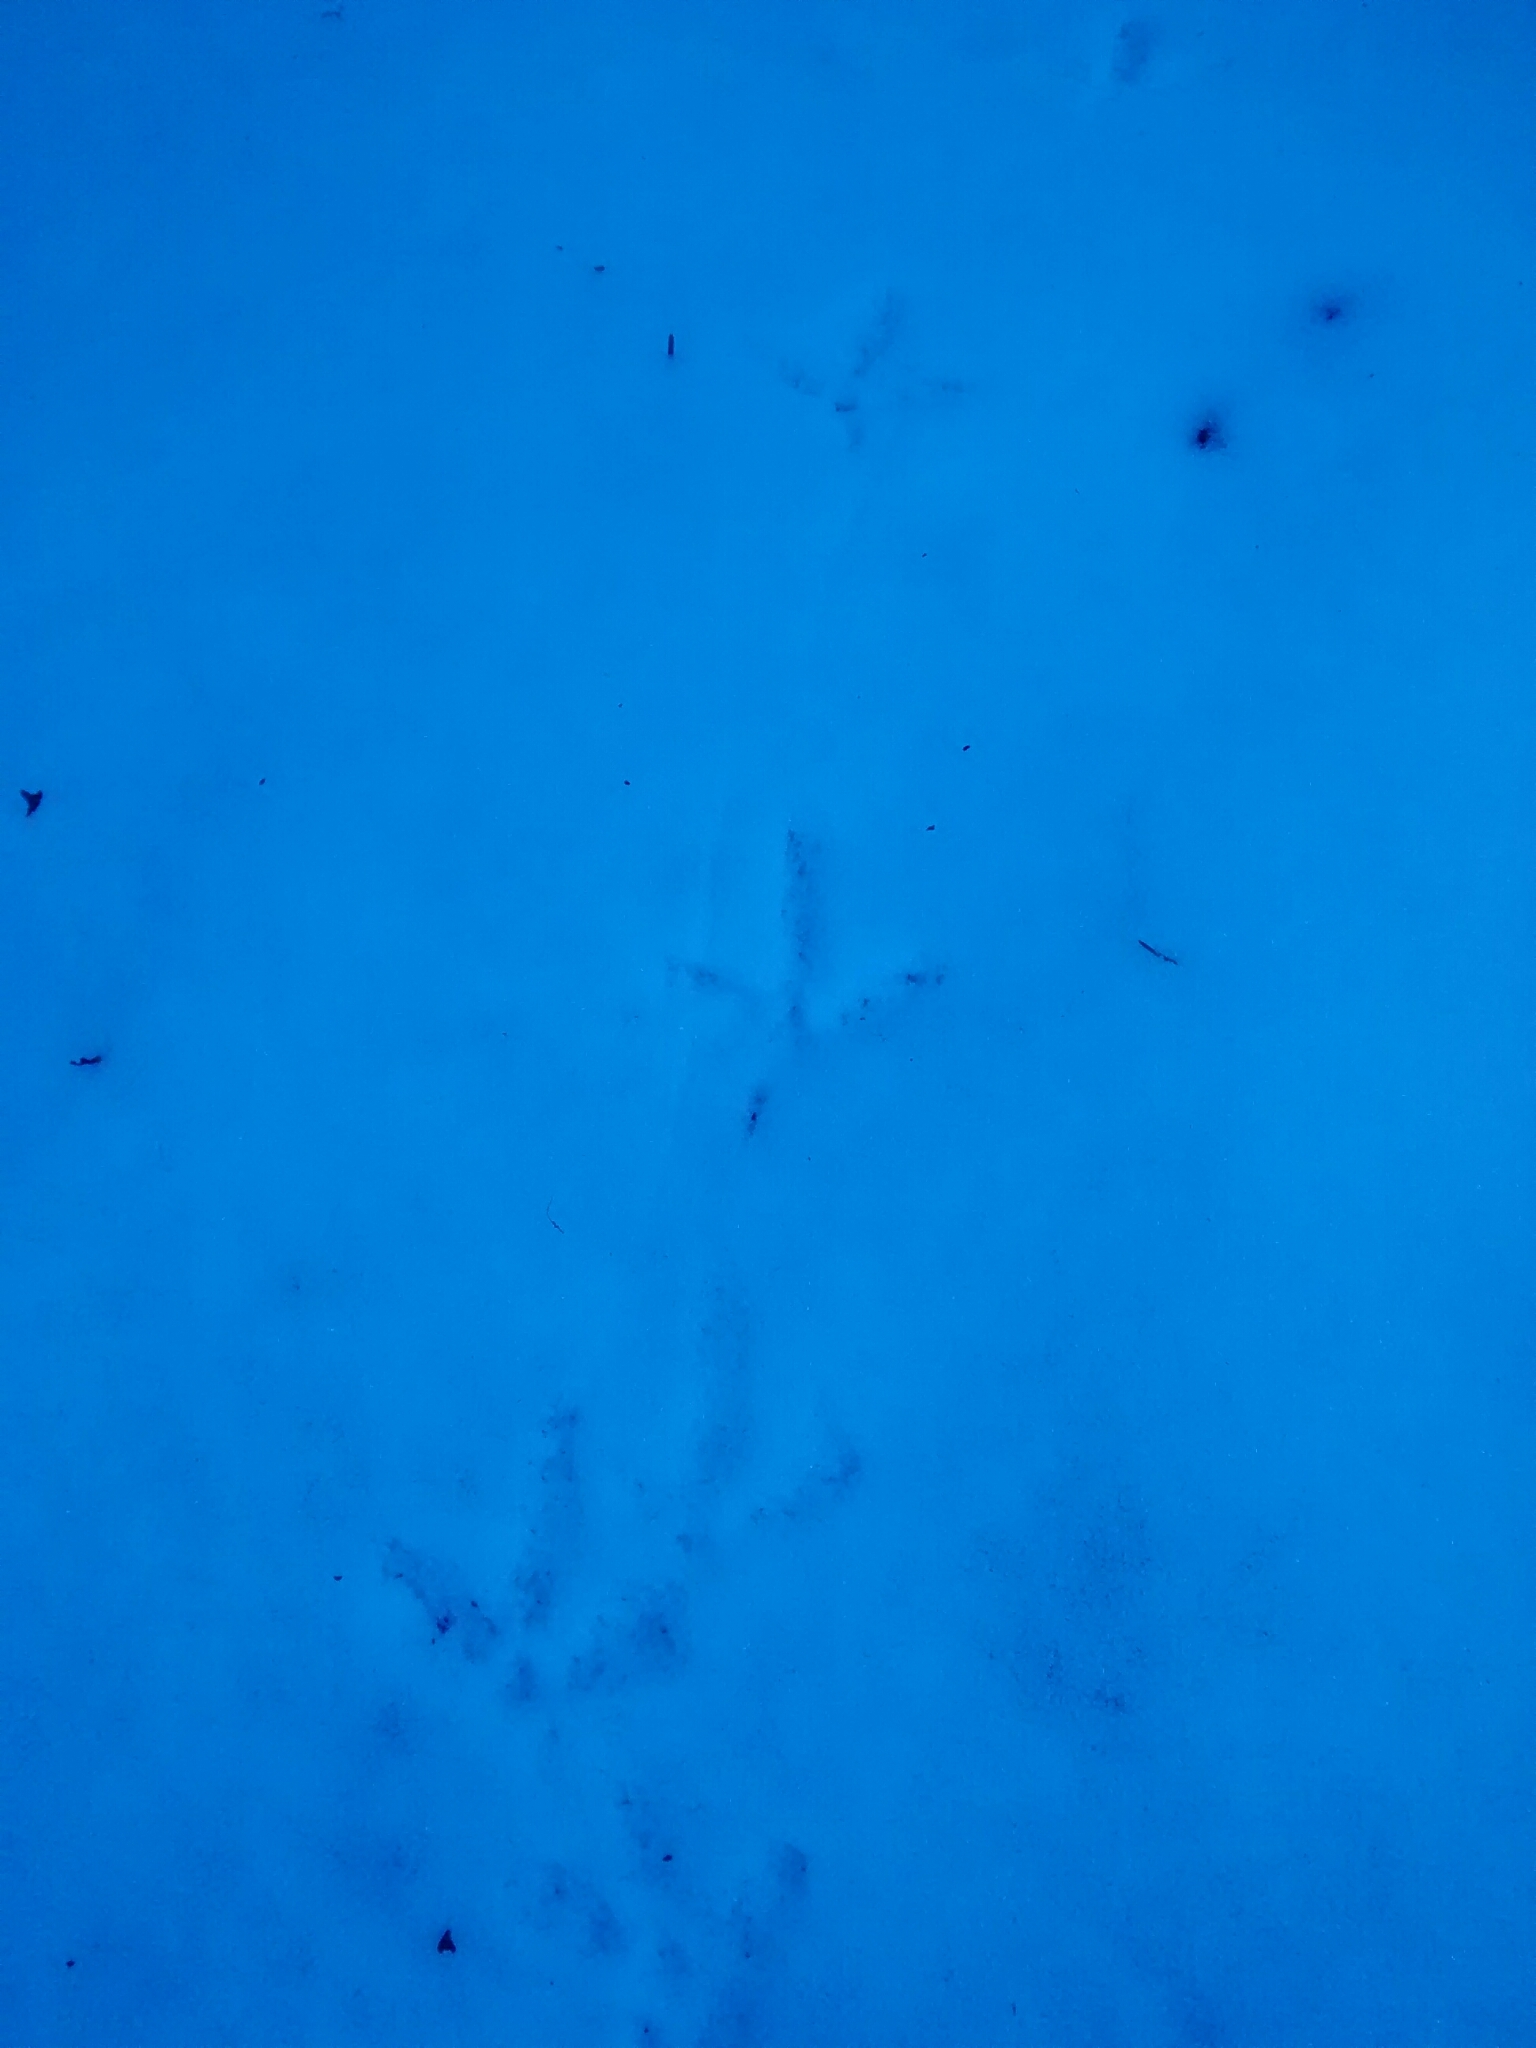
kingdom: Animalia
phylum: Chordata
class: Aves
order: Galliformes
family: Phasianidae
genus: Bonasa
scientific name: Bonasa umbellus
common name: Ruffed grouse
